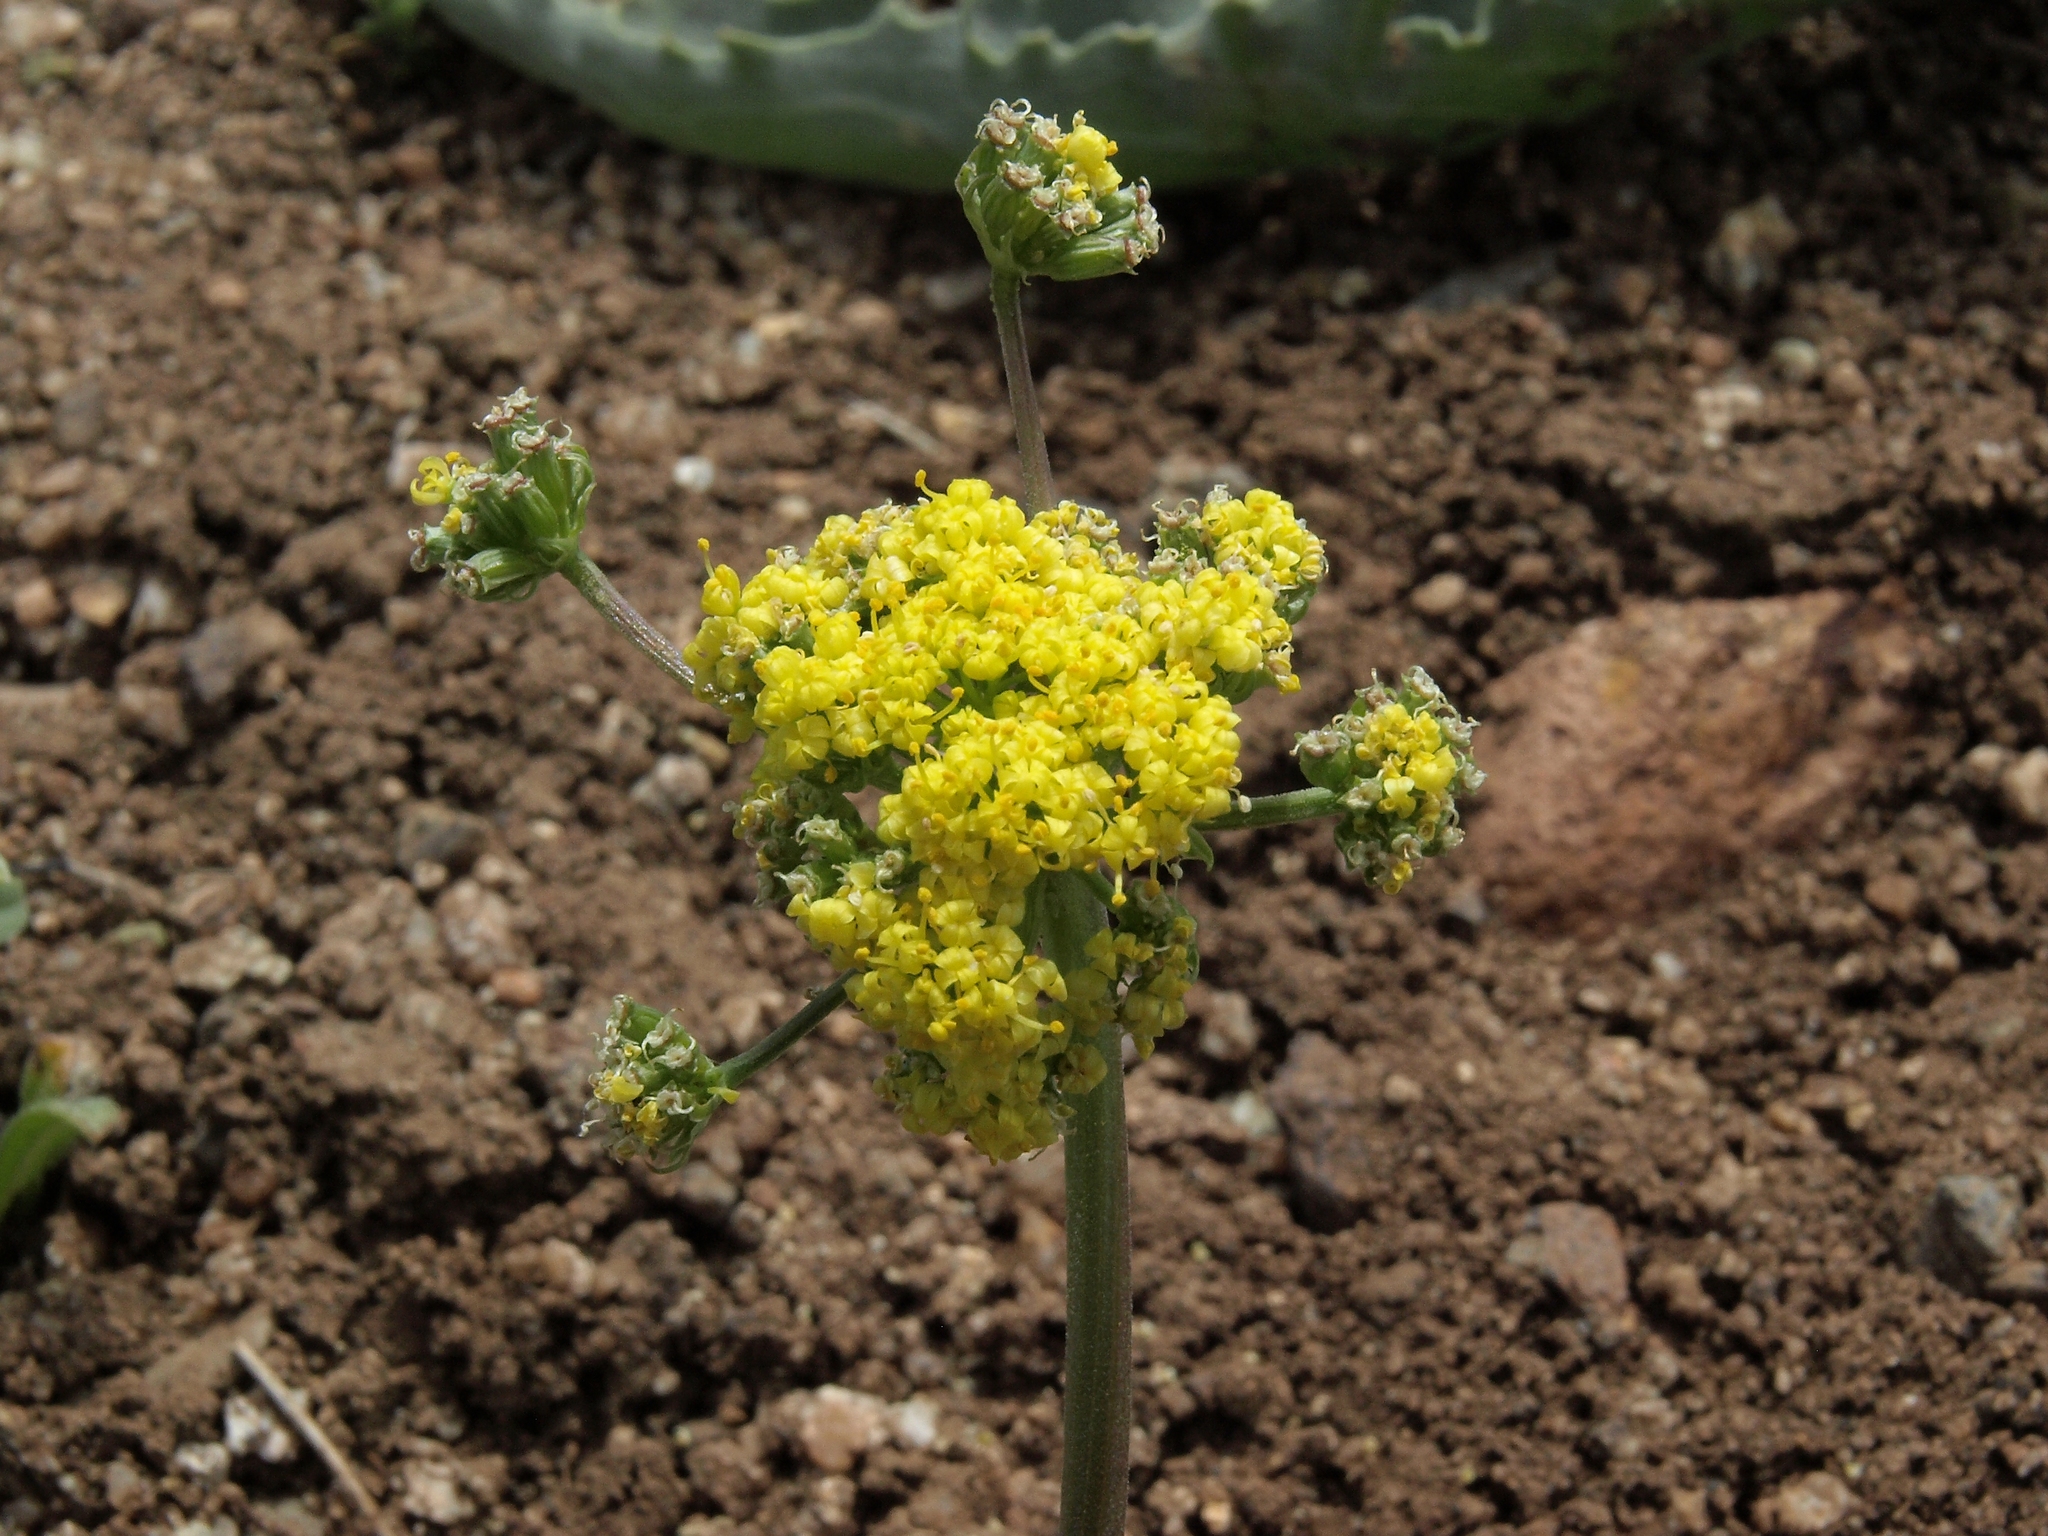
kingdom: Plantae
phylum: Tracheophyta
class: Magnoliopsida
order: Apiales
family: Apiaceae
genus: Lomatium
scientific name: Lomatium austiniae
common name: Plumas lomatium
